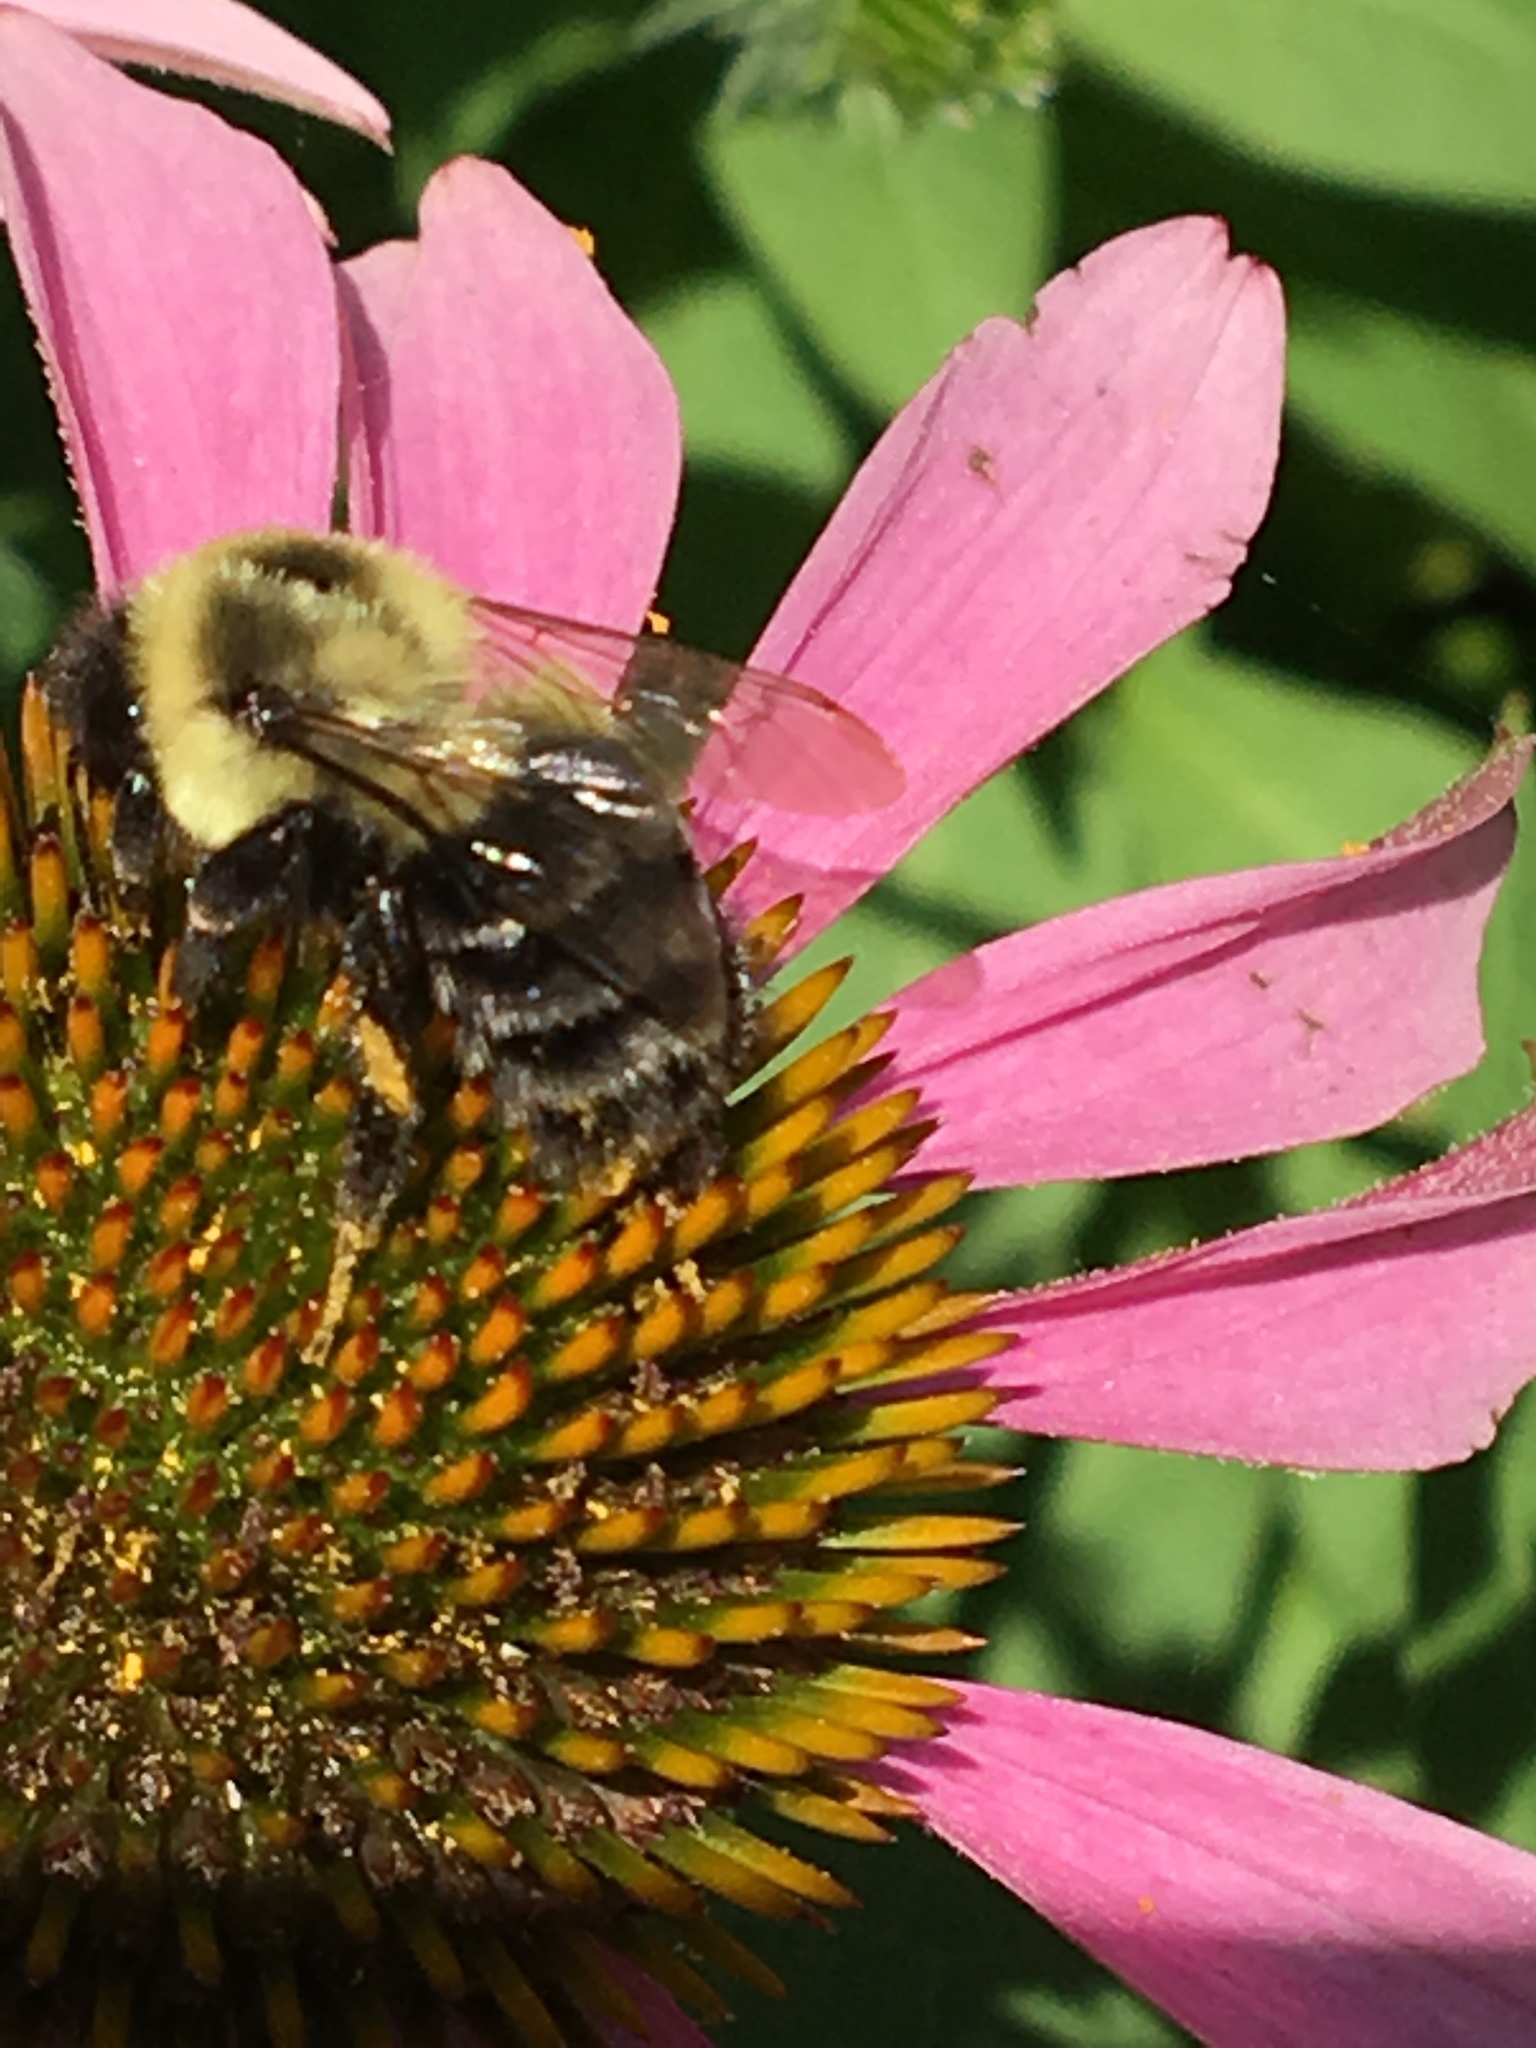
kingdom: Animalia
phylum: Arthropoda
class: Insecta
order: Hymenoptera
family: Apidae
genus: Bombus
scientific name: Bombus impatiens
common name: Common eastern bumble bee
